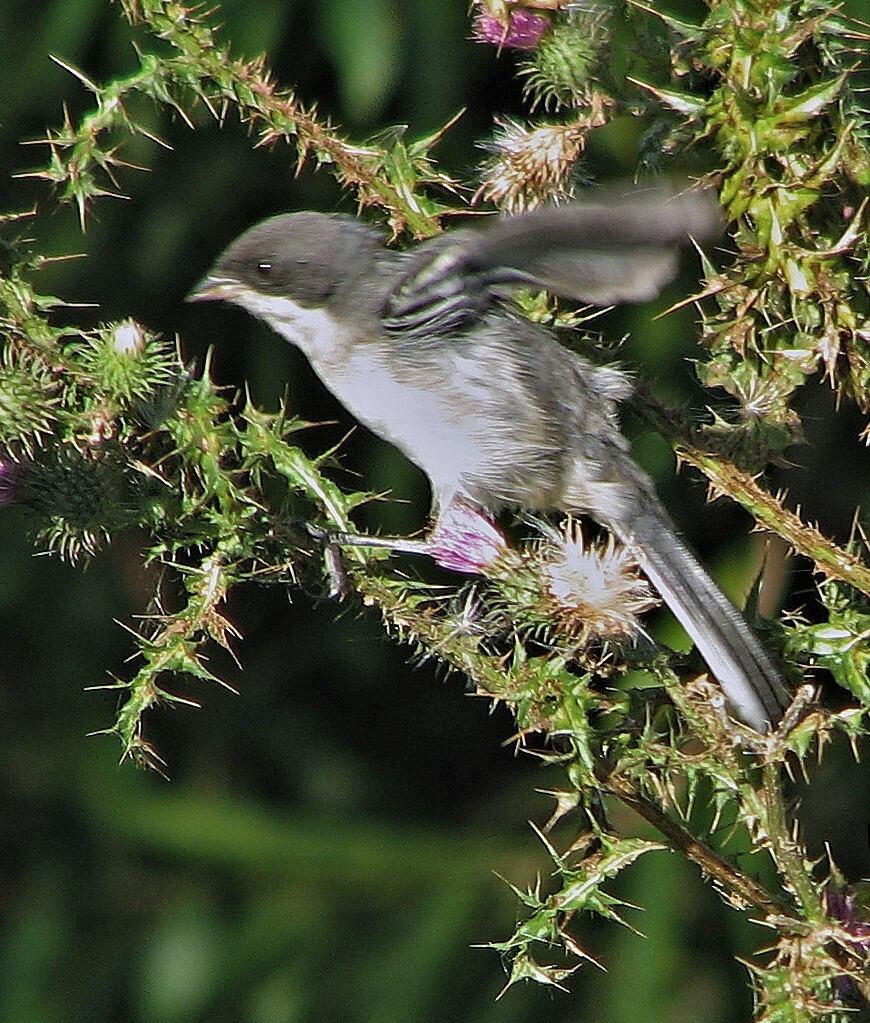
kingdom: Animalia
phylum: Chordata
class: Aves
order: Passeriformes
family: Thraupidae
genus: Microspingus
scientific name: Microspingus melanoleucus
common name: Black-capped warbling-finch
